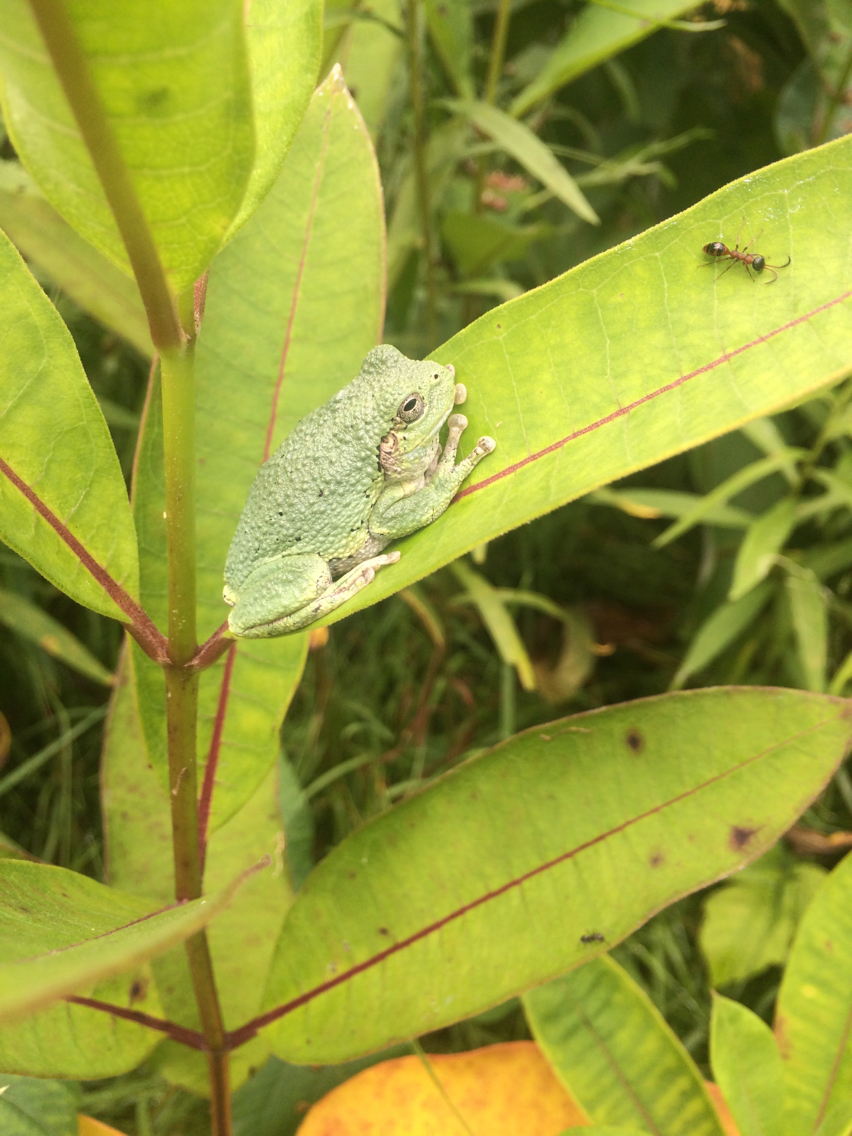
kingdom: Animalia
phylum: Chordata
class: Amphibia
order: Anura
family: Hylidae
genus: Dryophytes
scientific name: Dryophytes versicolor
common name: Gray treefrog
